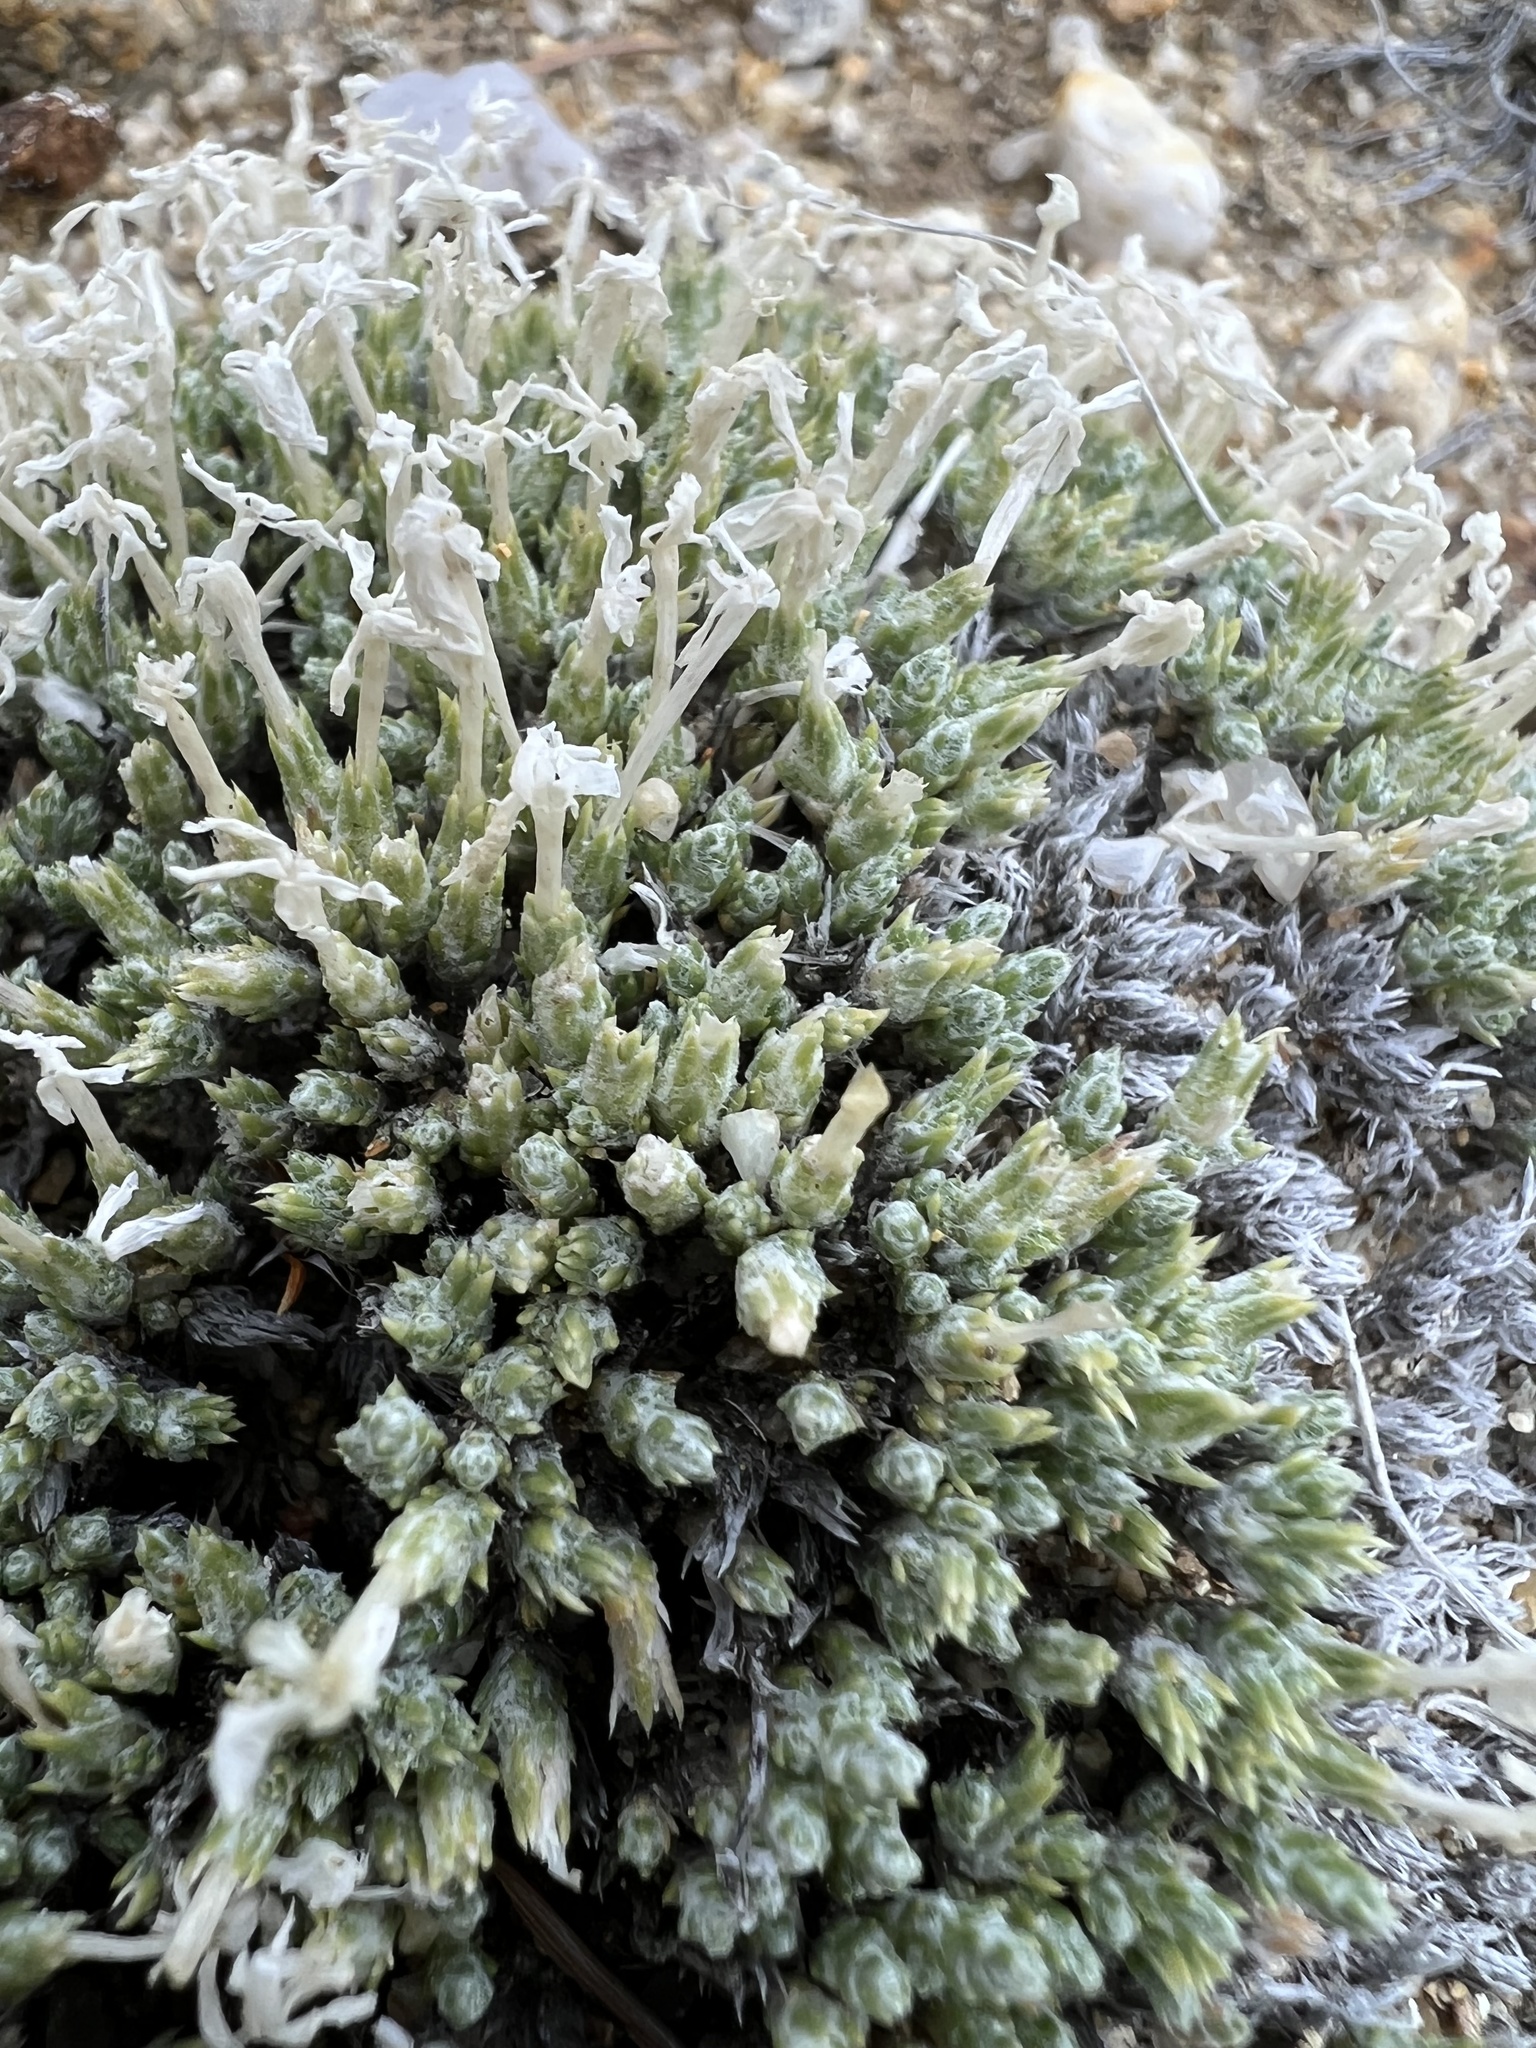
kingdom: Plantae
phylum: Tracheophyta
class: Magnoliopsida
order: Ericales
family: Polemoniaceae
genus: Phlox
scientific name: Phlox hoodii
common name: Moss phlox
